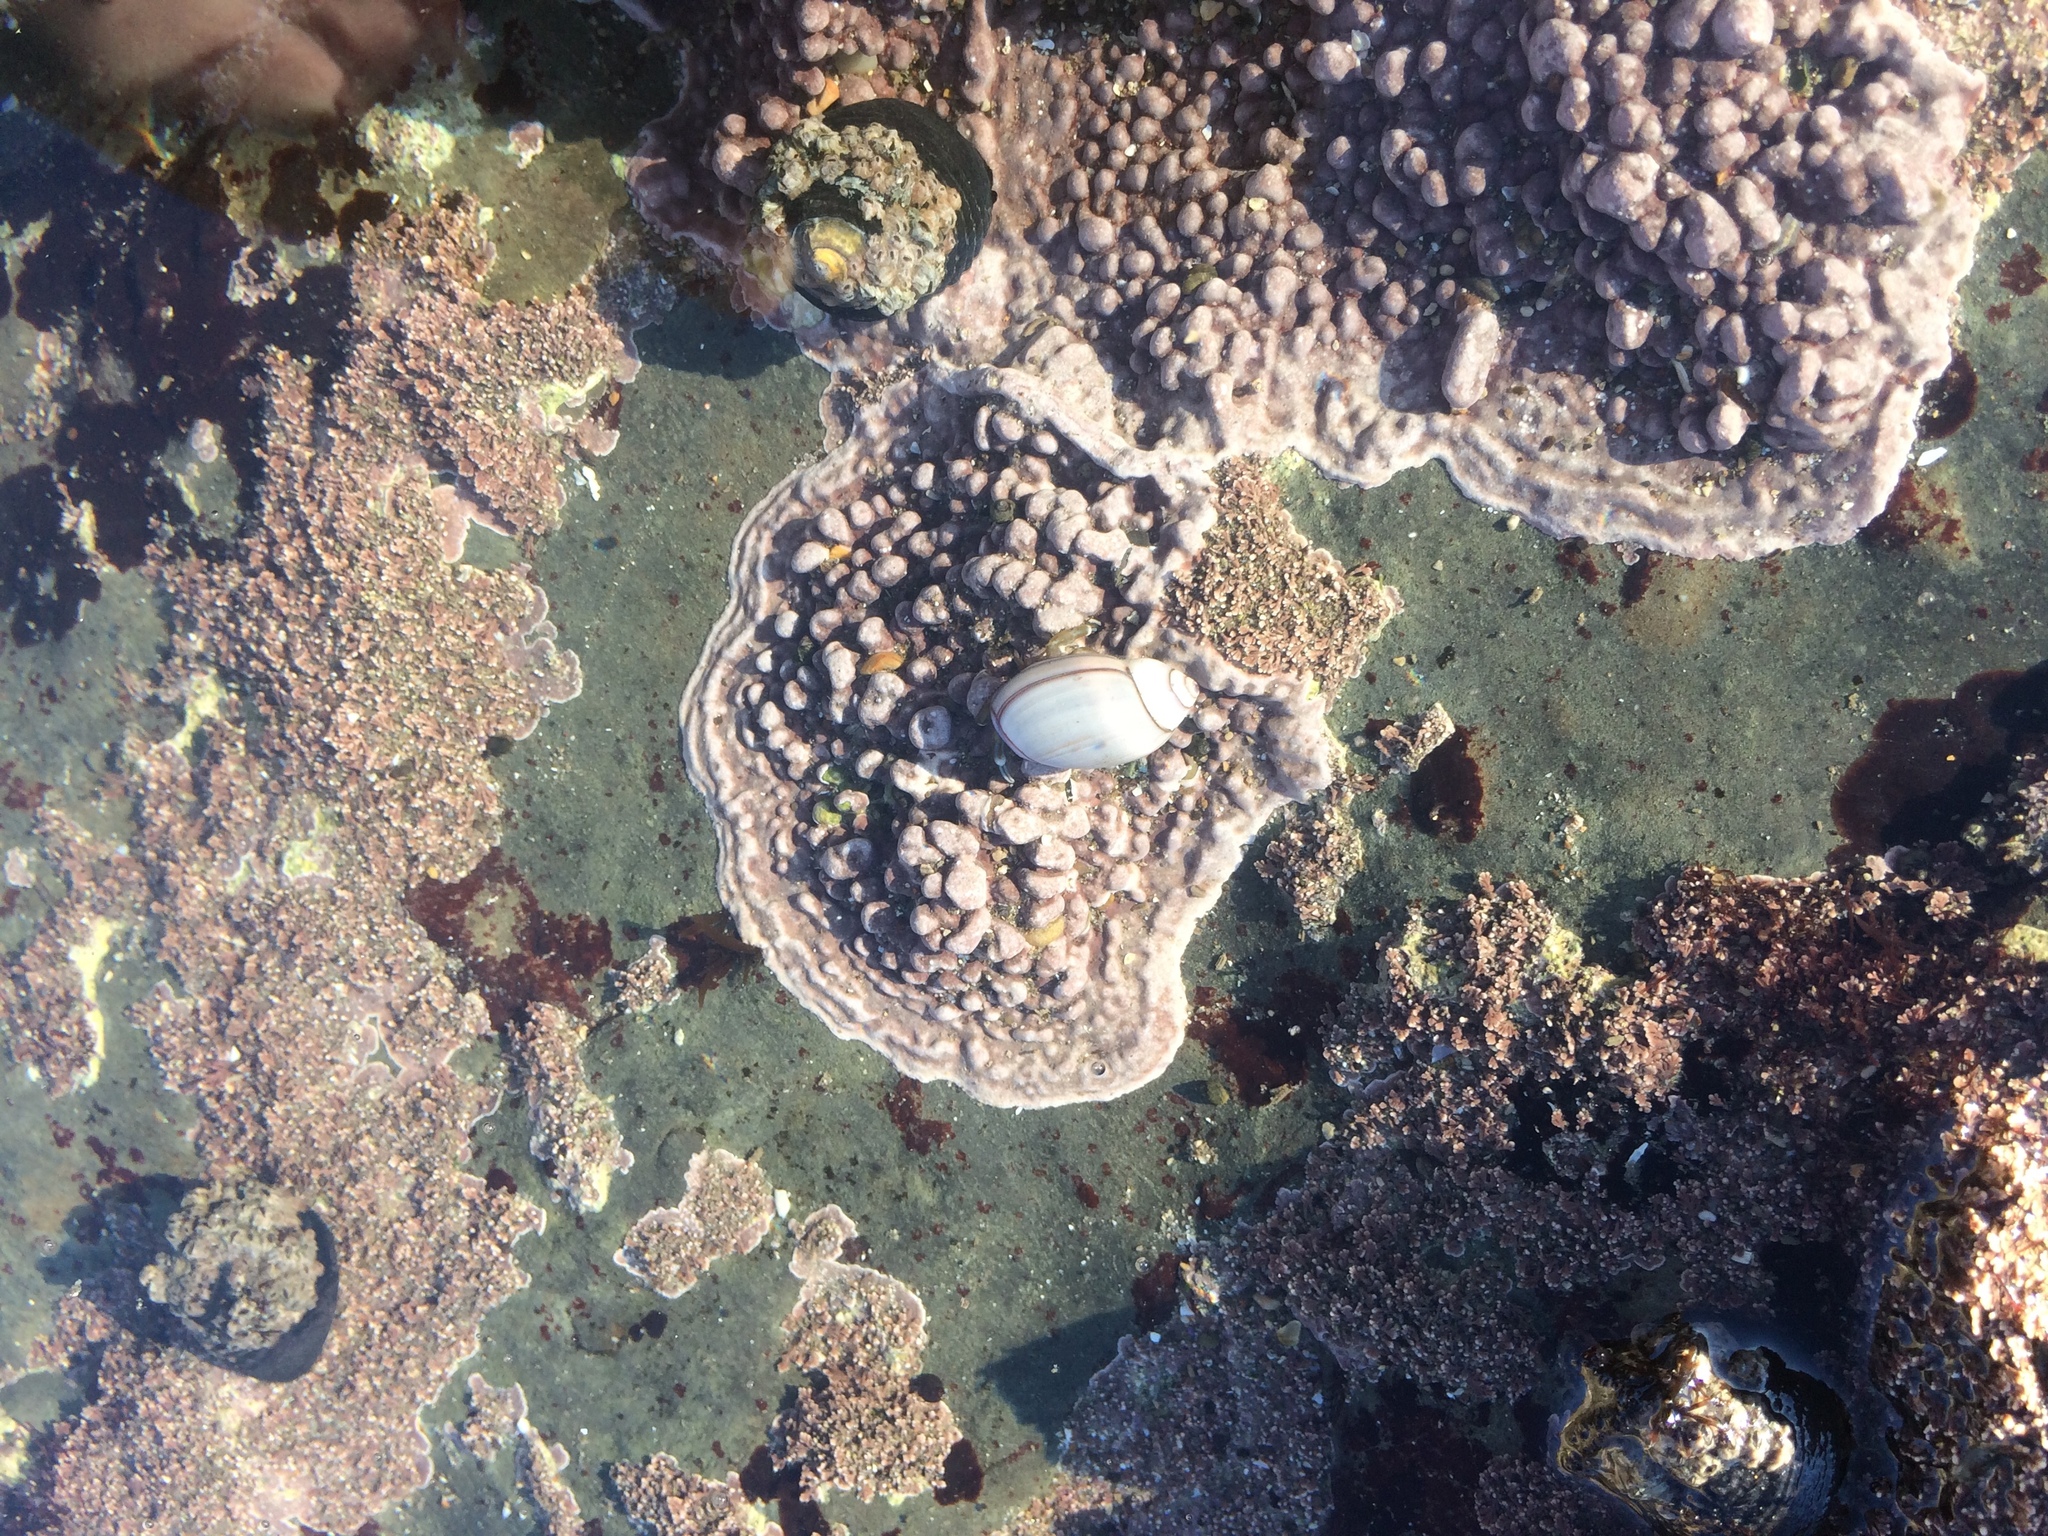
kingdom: Animalia
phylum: Mollusca
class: Gastropoda
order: Neogastropoda
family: Olividae
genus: Callianax
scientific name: Callianax biplicata
